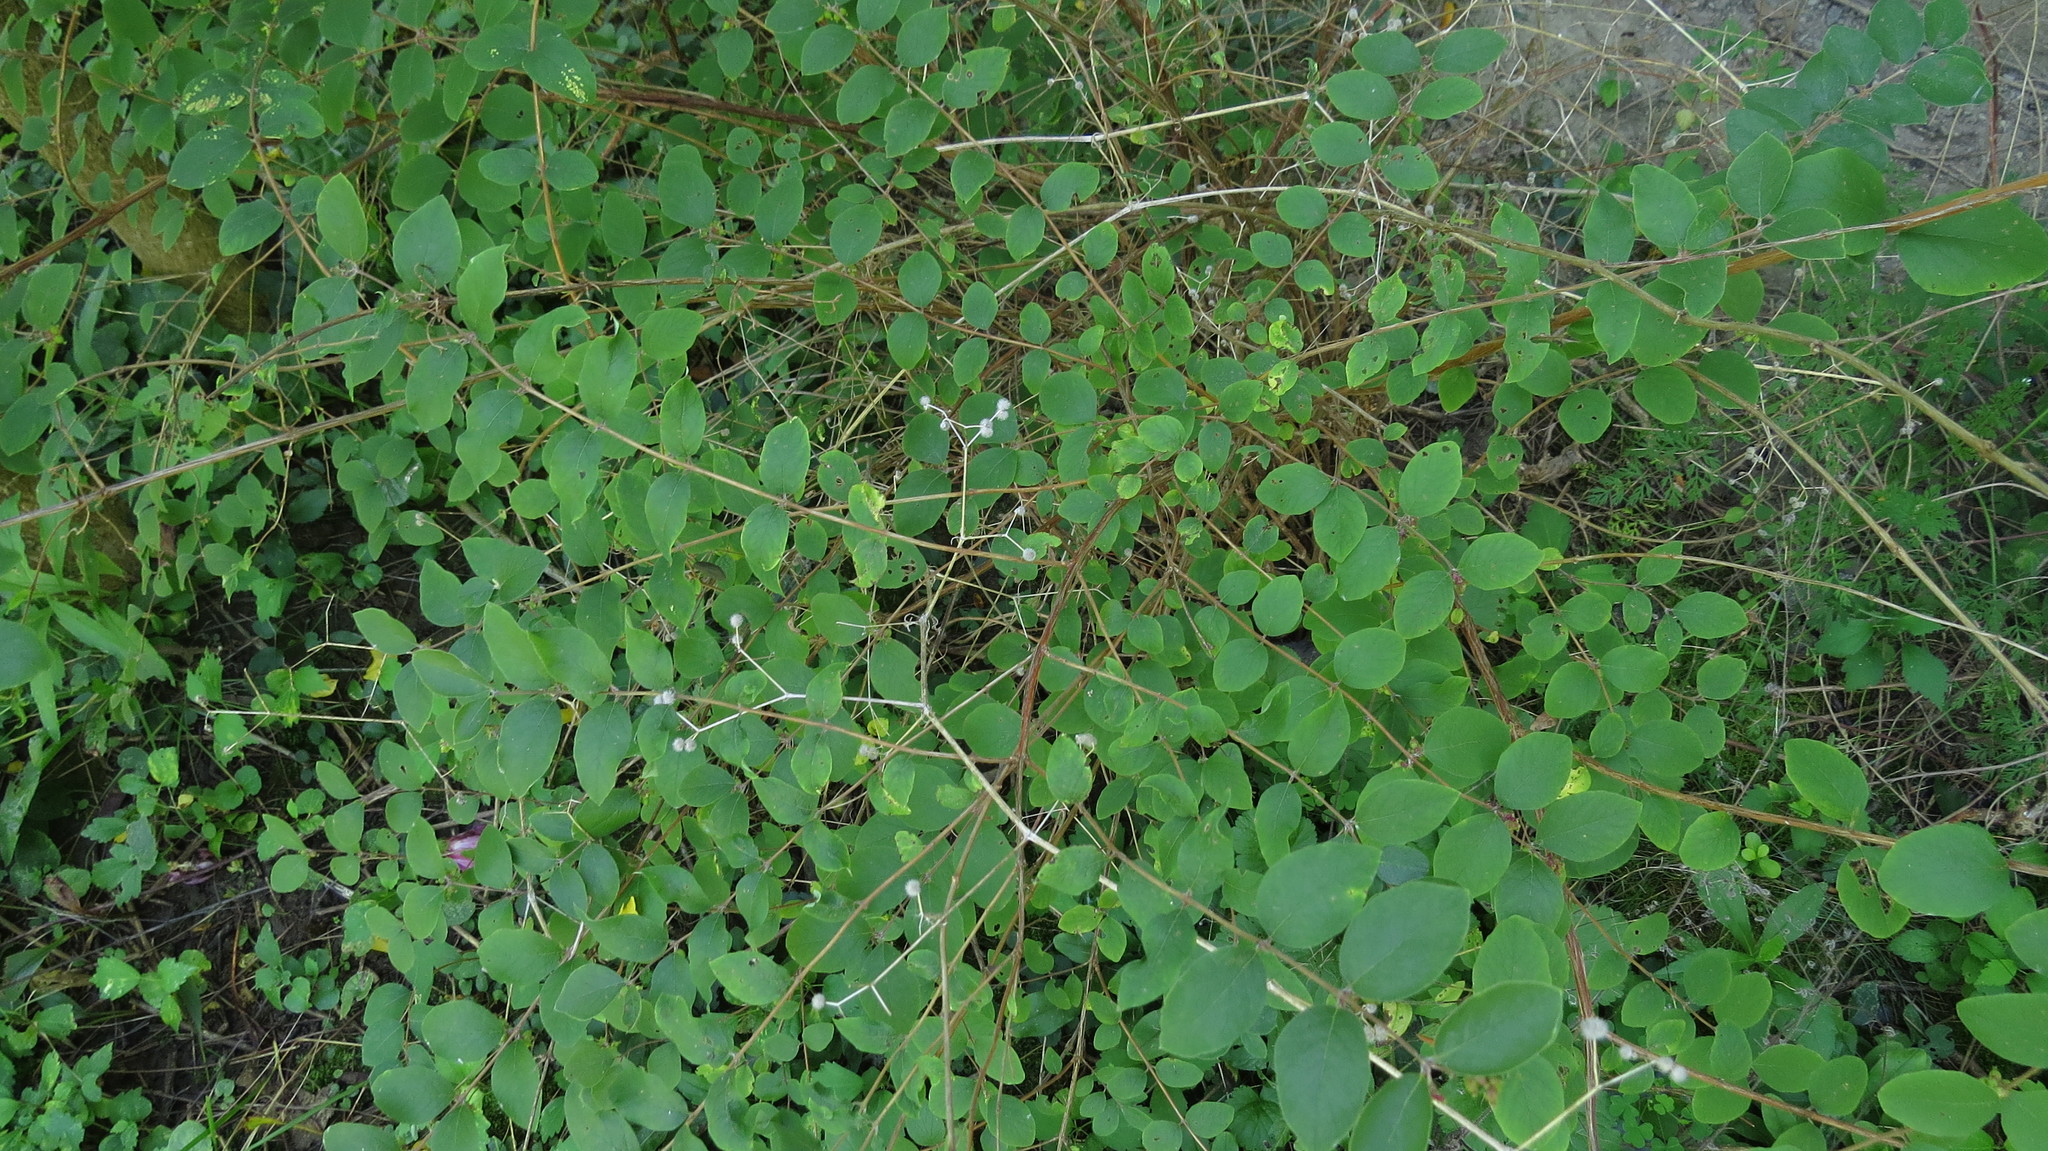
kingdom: Plantae
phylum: Tracheophyta
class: Magnoliopsida
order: Dipsacales
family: Caprifoliaceae
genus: Symphoricarpos
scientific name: Symphoricarpos orbiculatus
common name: Coralberry
